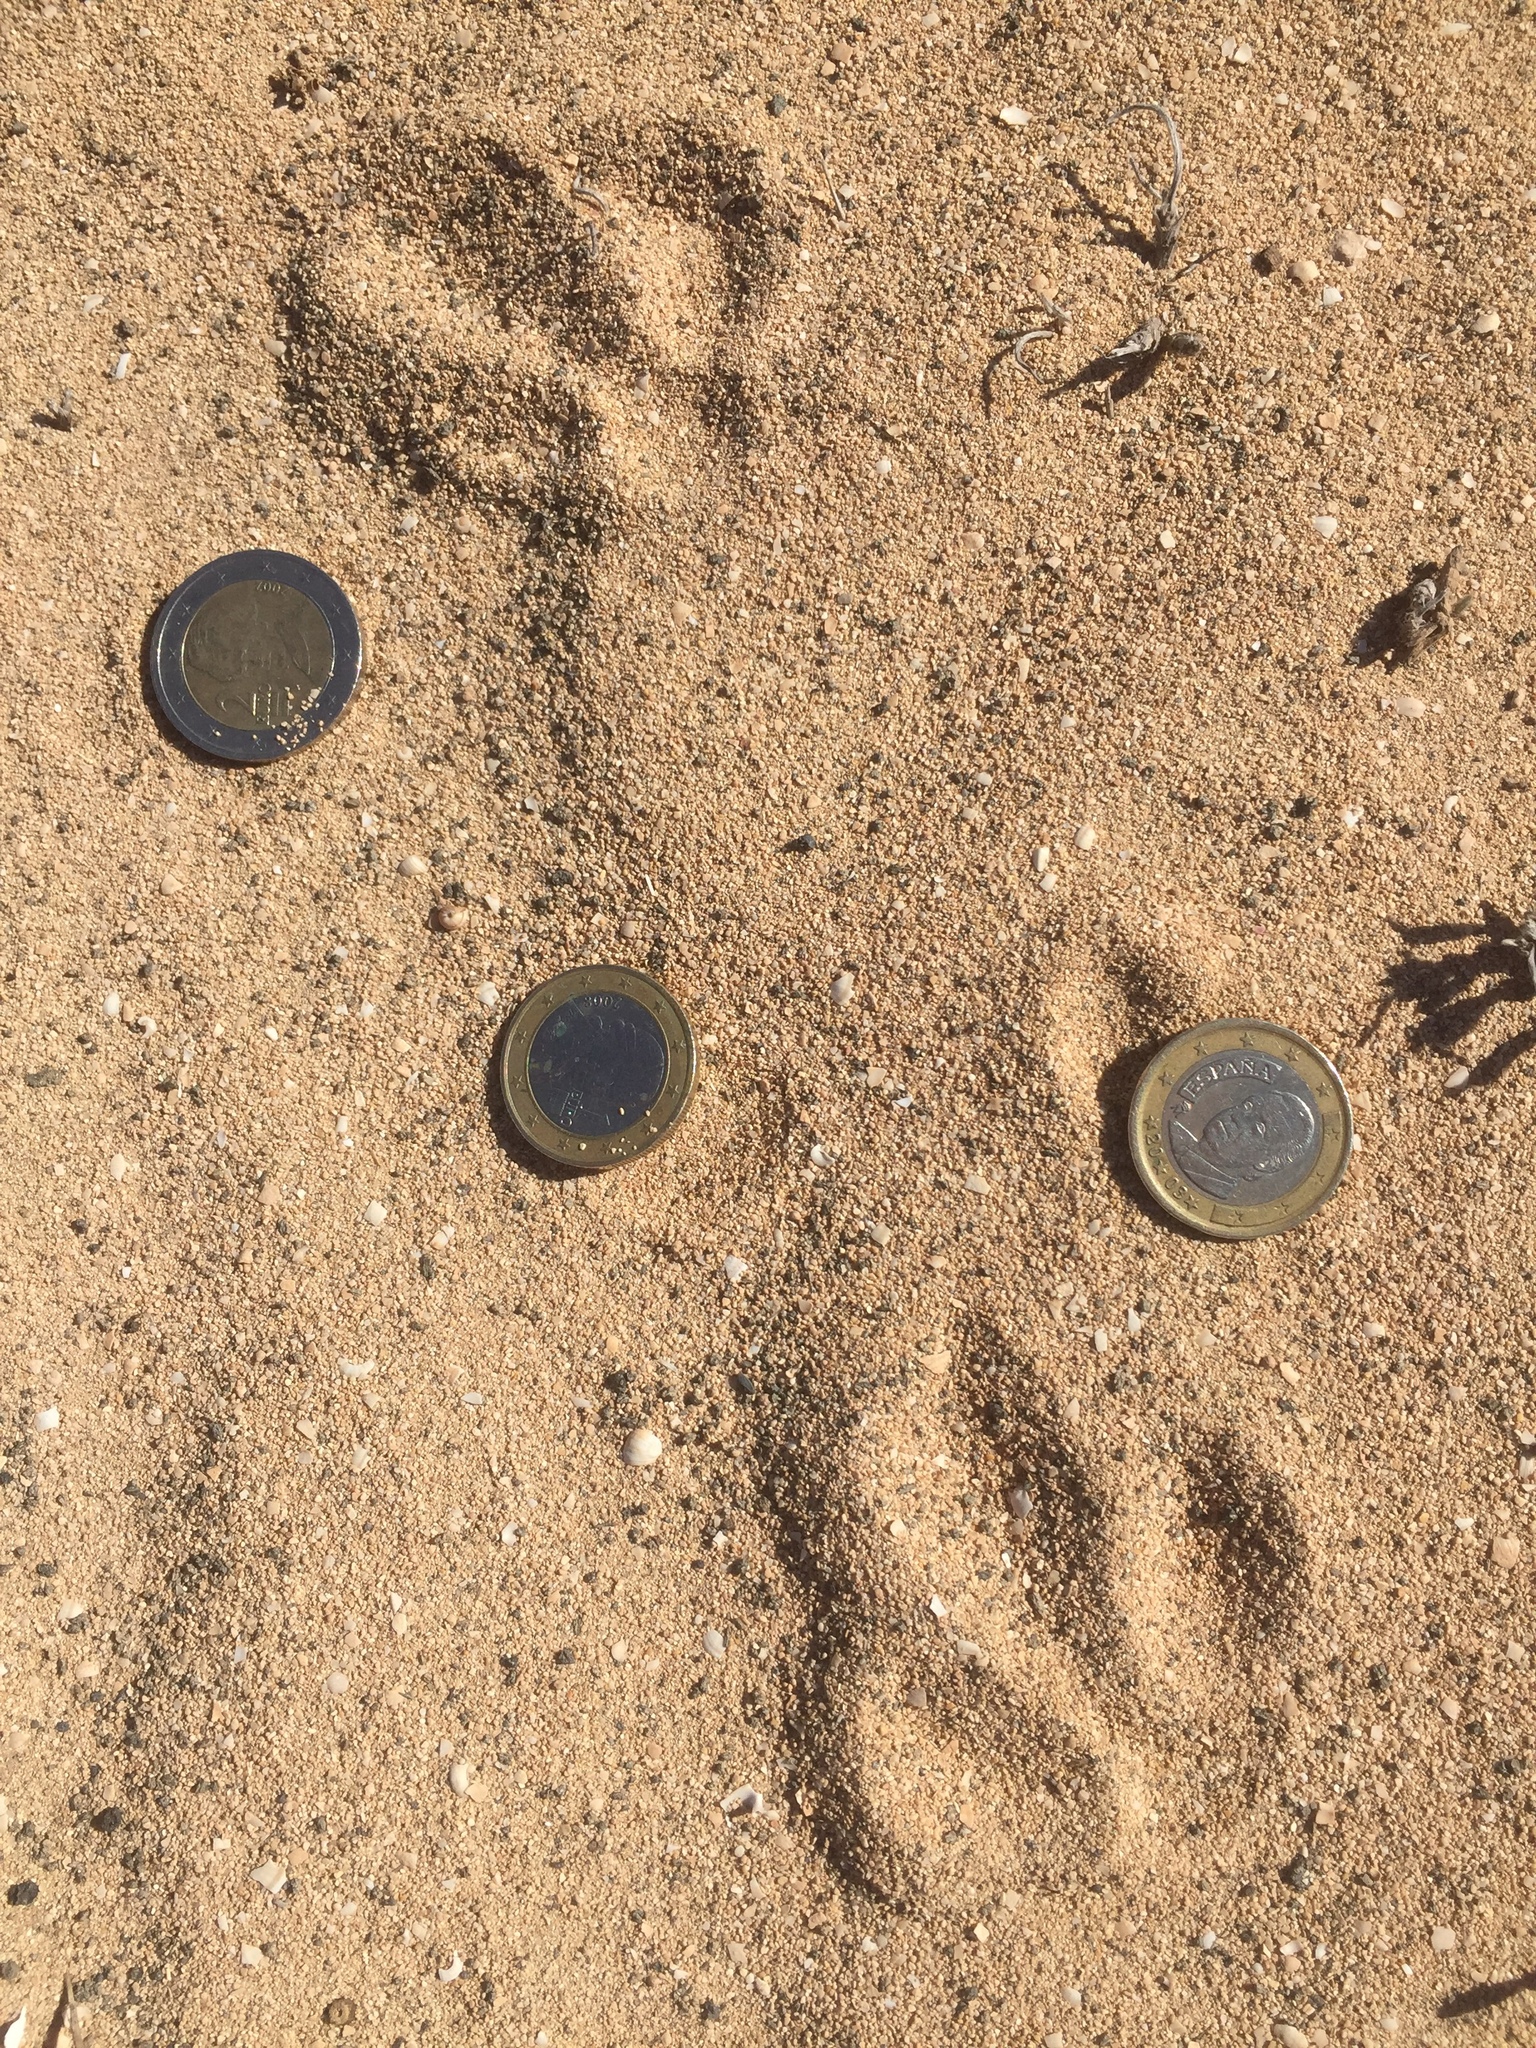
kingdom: Animalia
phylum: Chordata
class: Aves
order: Charadriiformes
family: Burhinidae
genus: Burhinus
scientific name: Burhinus oedicnemus
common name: Eurasian stone-curlew
